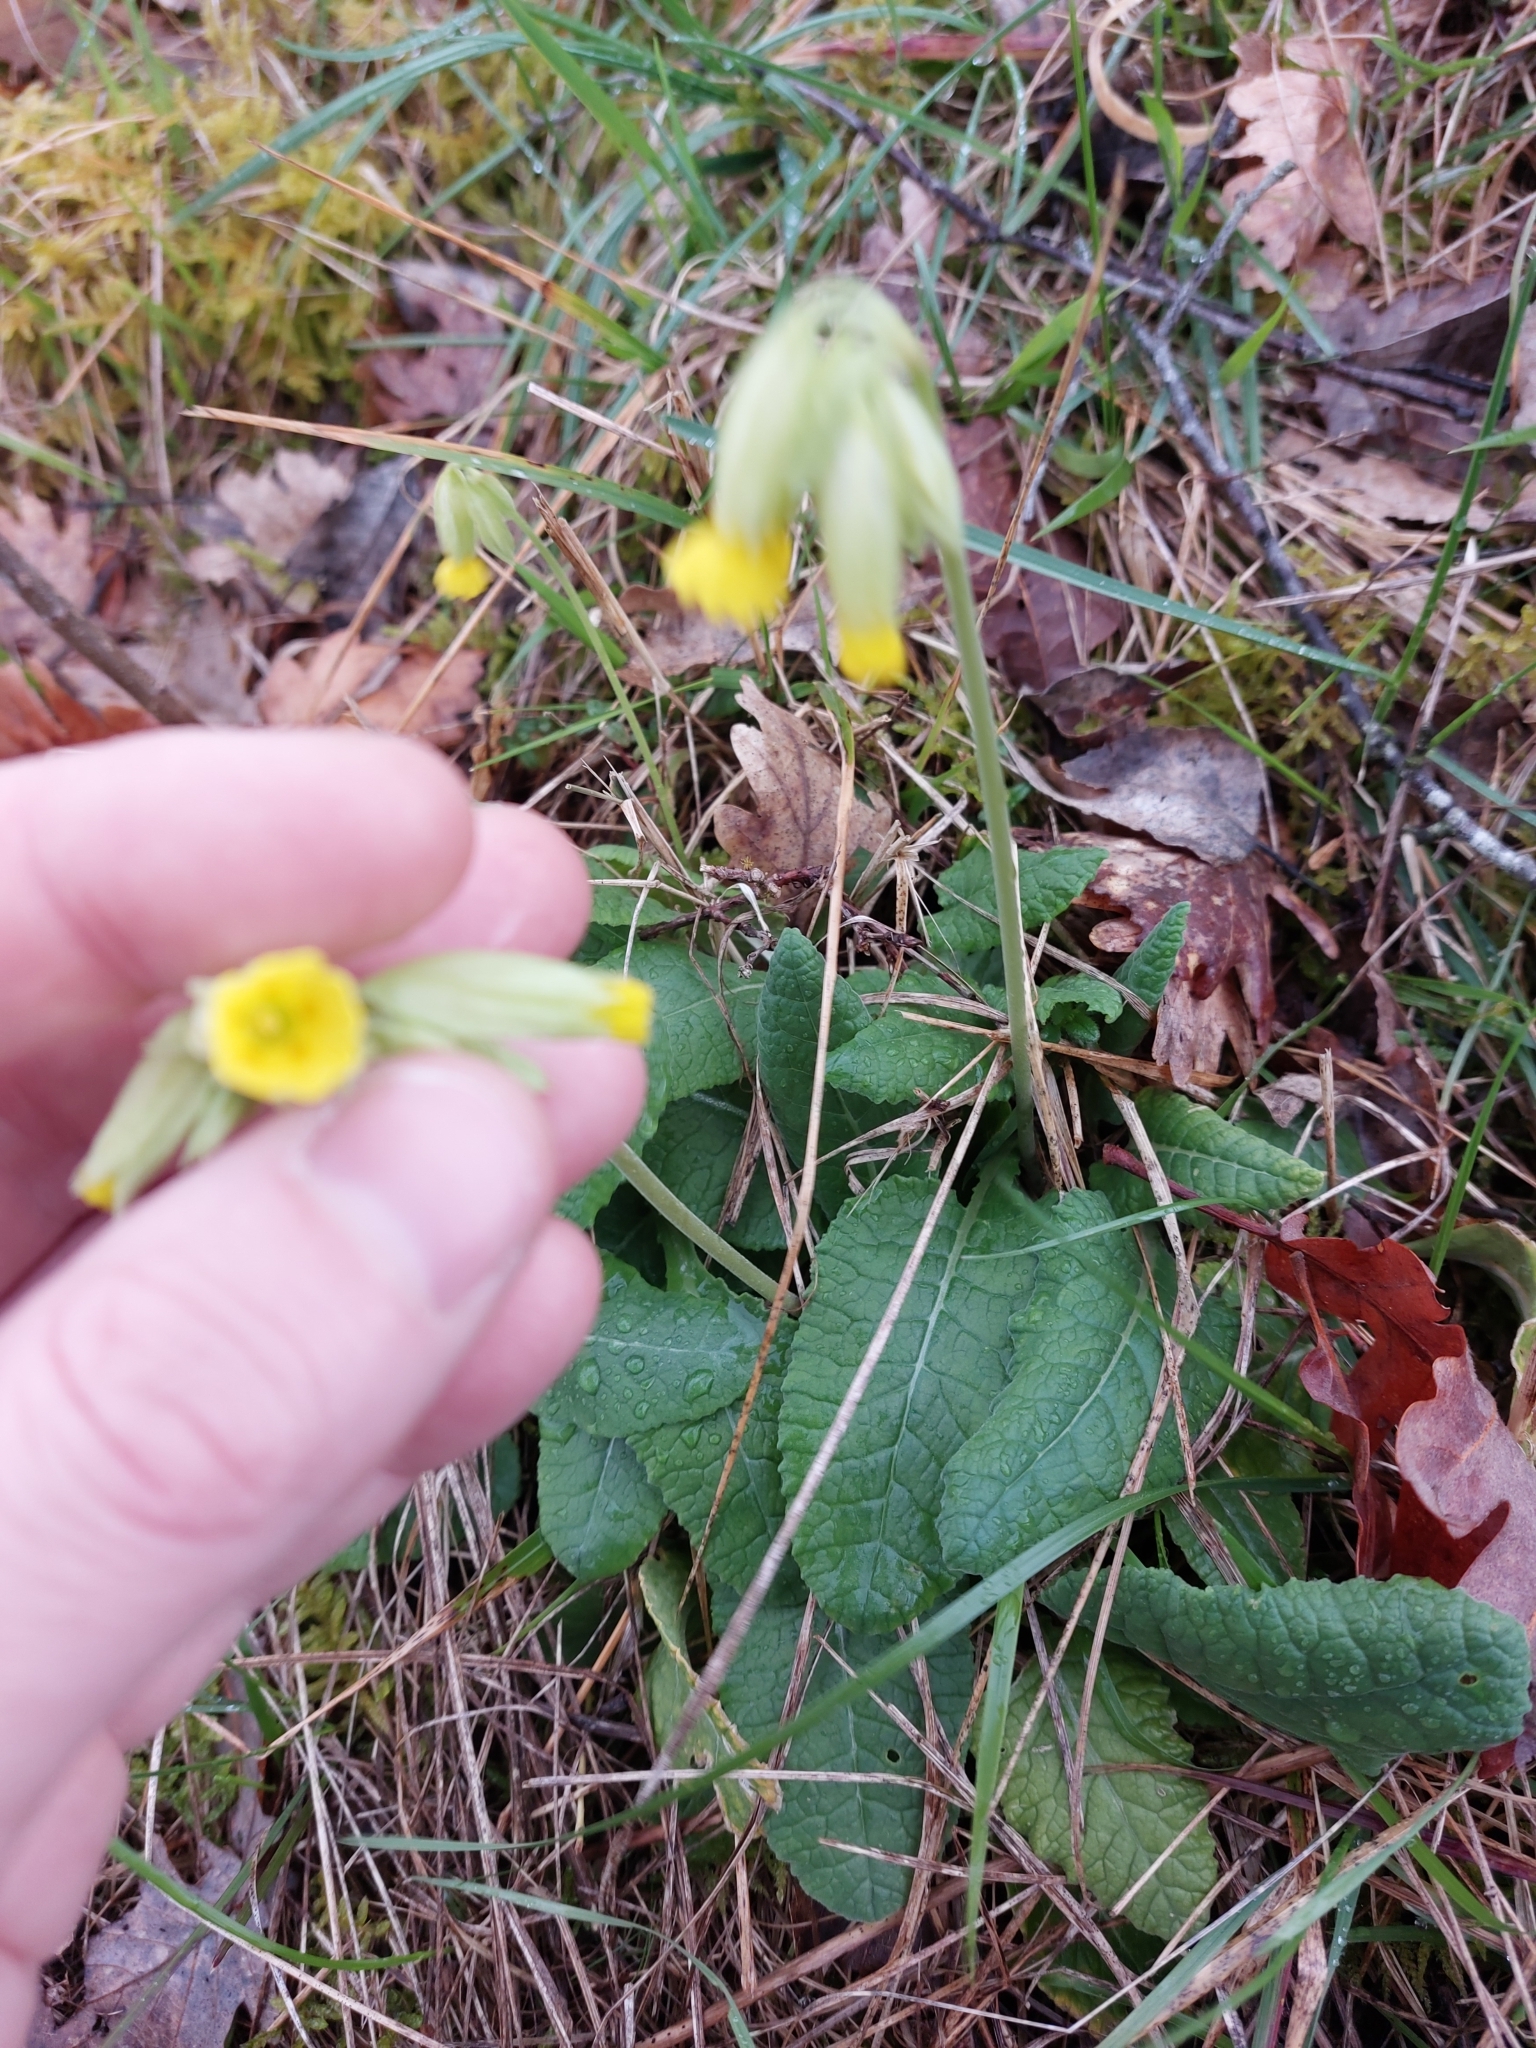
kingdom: Plantae
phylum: Tracheophyta
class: Magnoliopsida
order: Ericales
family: Primulaceae
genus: Primula
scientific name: Primula veris
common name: Cowslip
